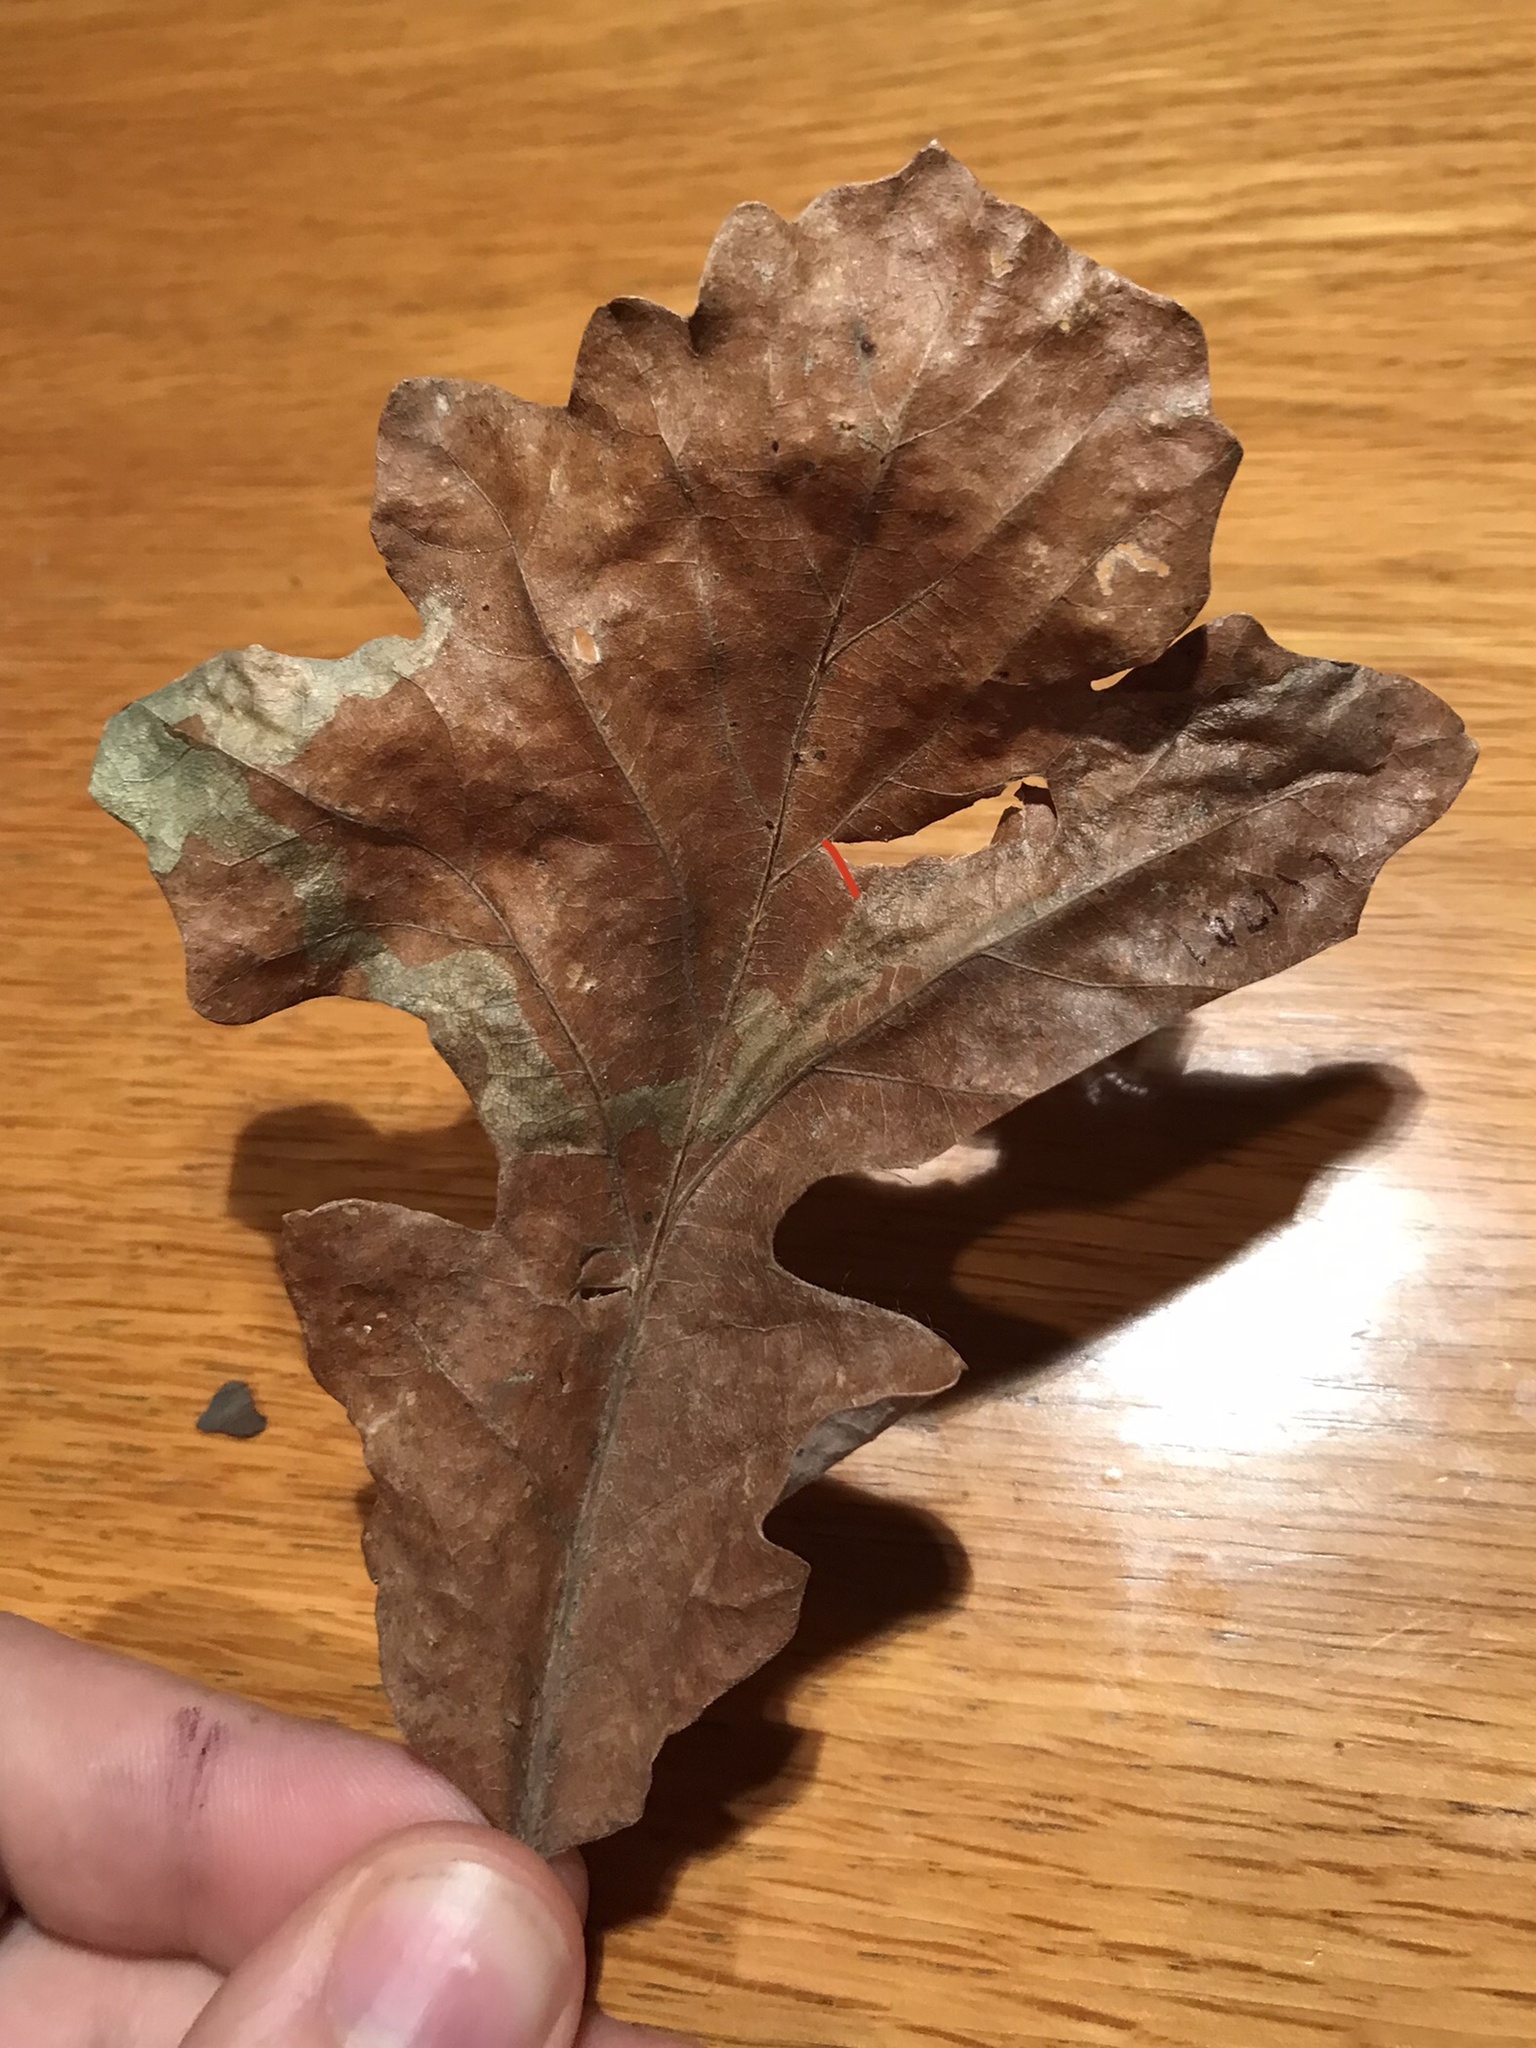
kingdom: Animalia
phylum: Arthropoda
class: Insecta
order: Coleoptera
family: Buprestidae
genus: Brachys
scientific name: Brachys aerosus
